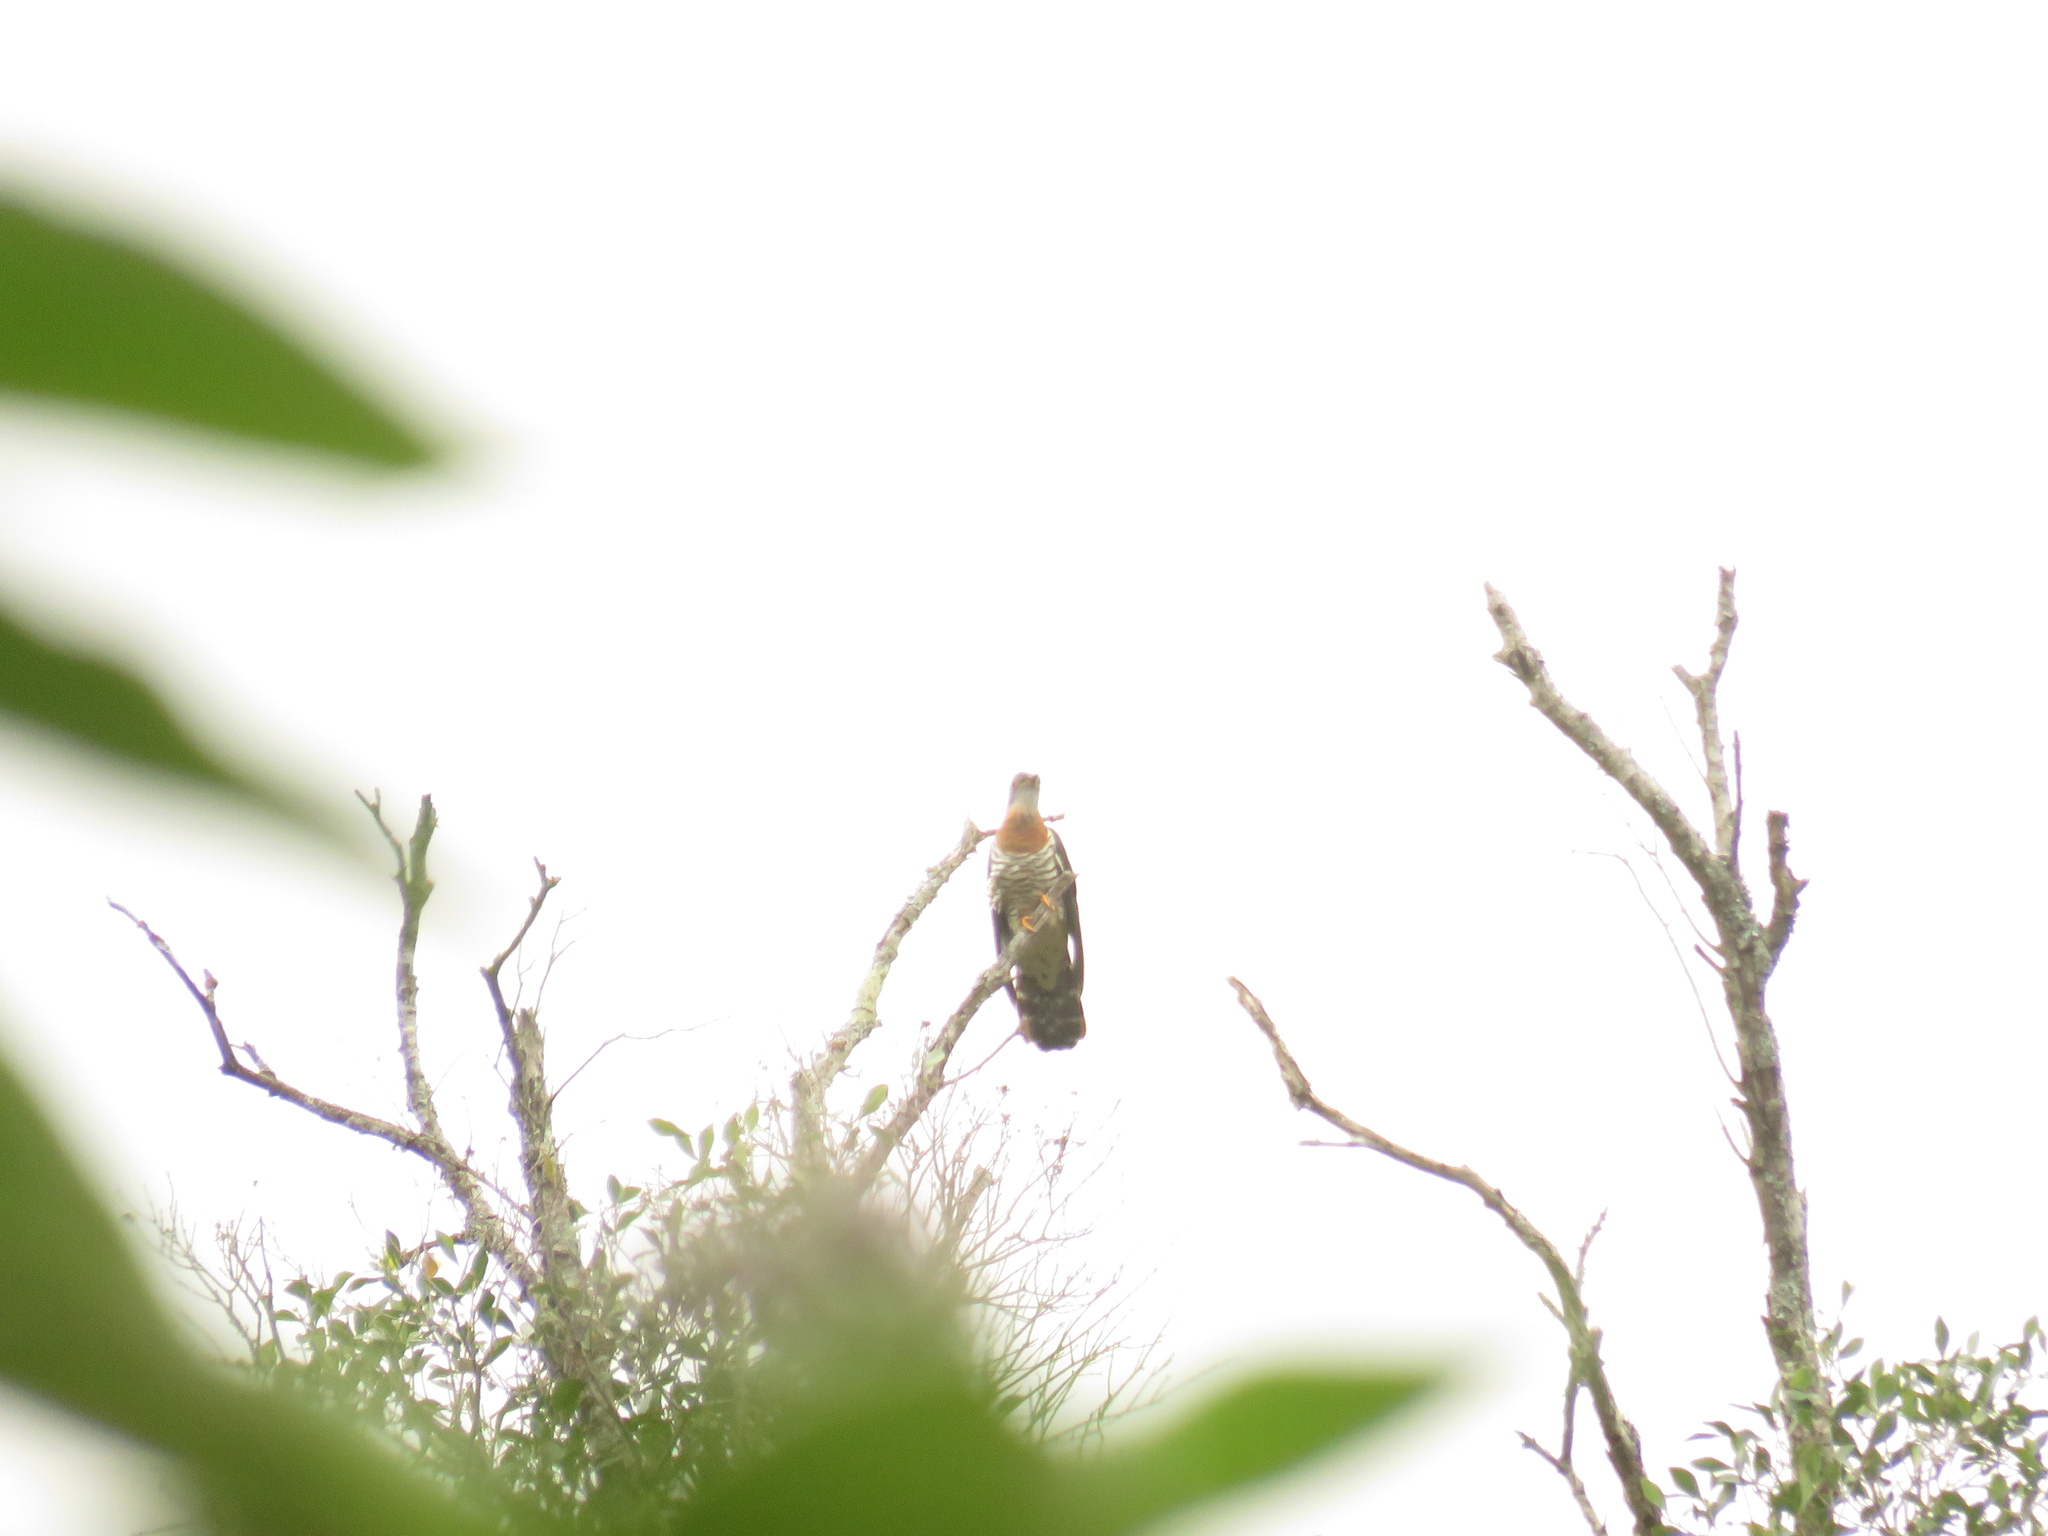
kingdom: Animalia
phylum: Chordata
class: Aves
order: Cuculiformes
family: Cuculidae
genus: Cuculus
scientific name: Cuculus solitarius
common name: Red-chested cuckoo
